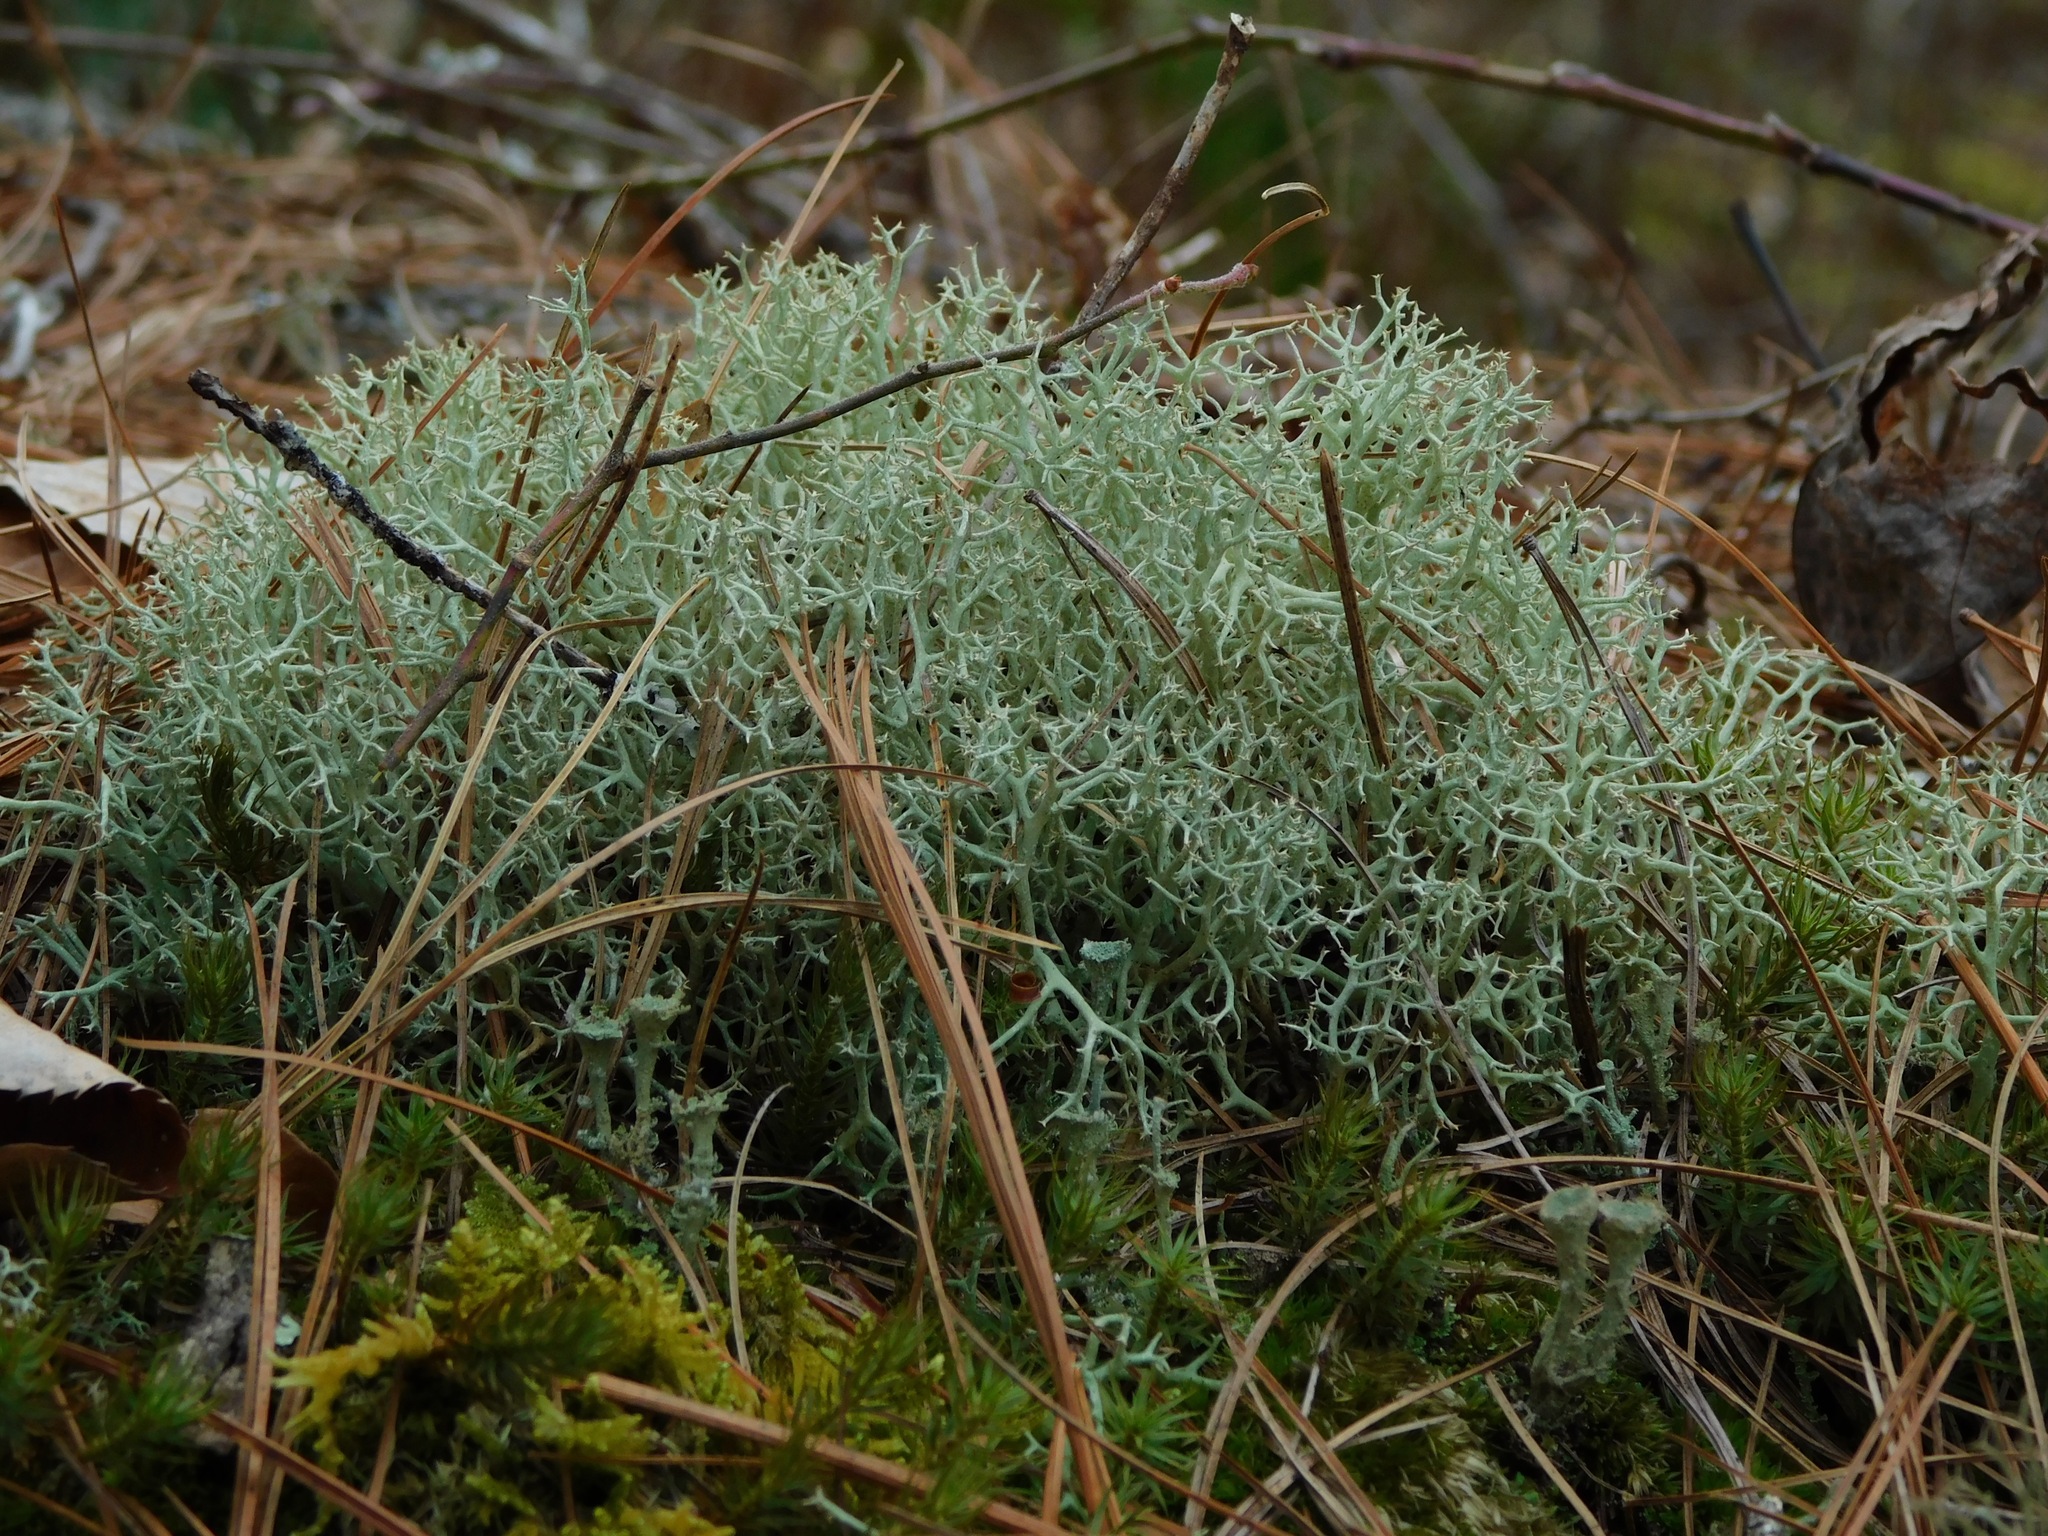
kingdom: Fungi
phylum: Ascomycota
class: Lecanoromycetes
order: Lecanorales
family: Cladoniaceae
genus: Cladonia
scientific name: Cladonia mitis
